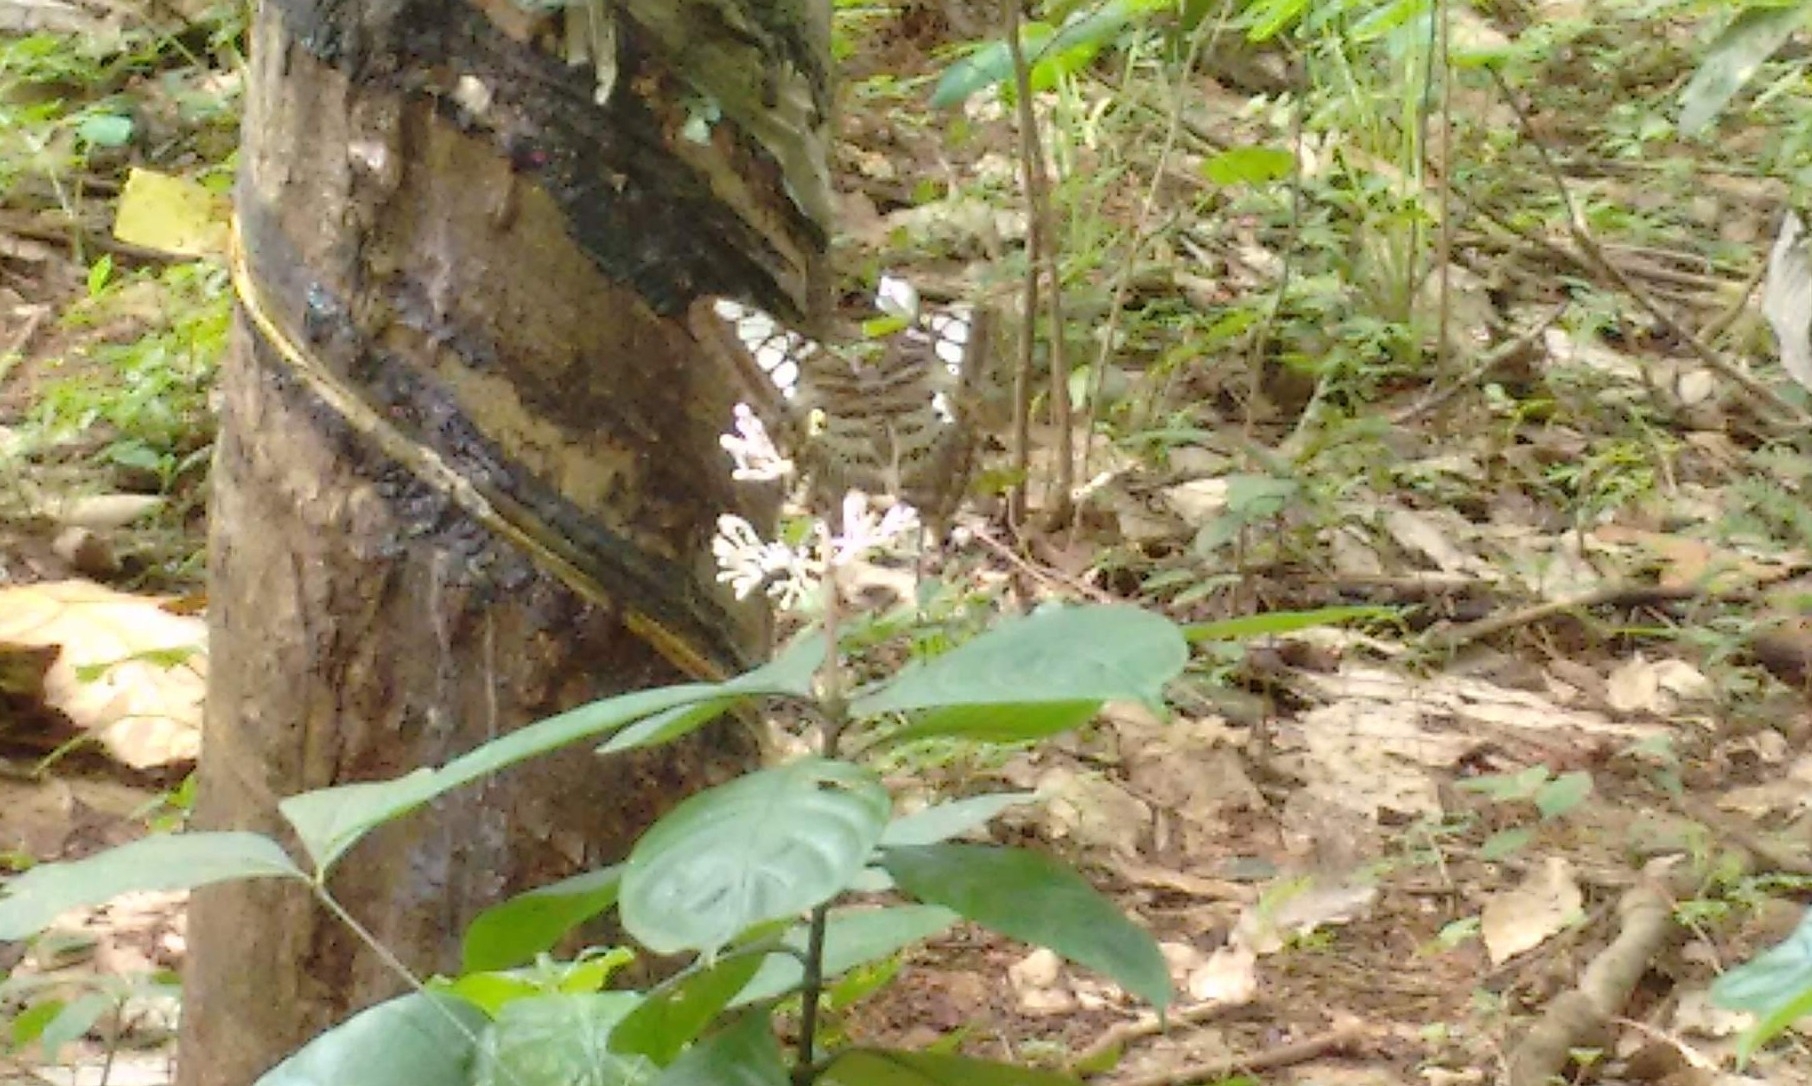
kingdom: Animalia
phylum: Arthropoda
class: Insecta
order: Lepidoptera
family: Nymphalidae
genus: Kallima
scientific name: Kallima sylvia
